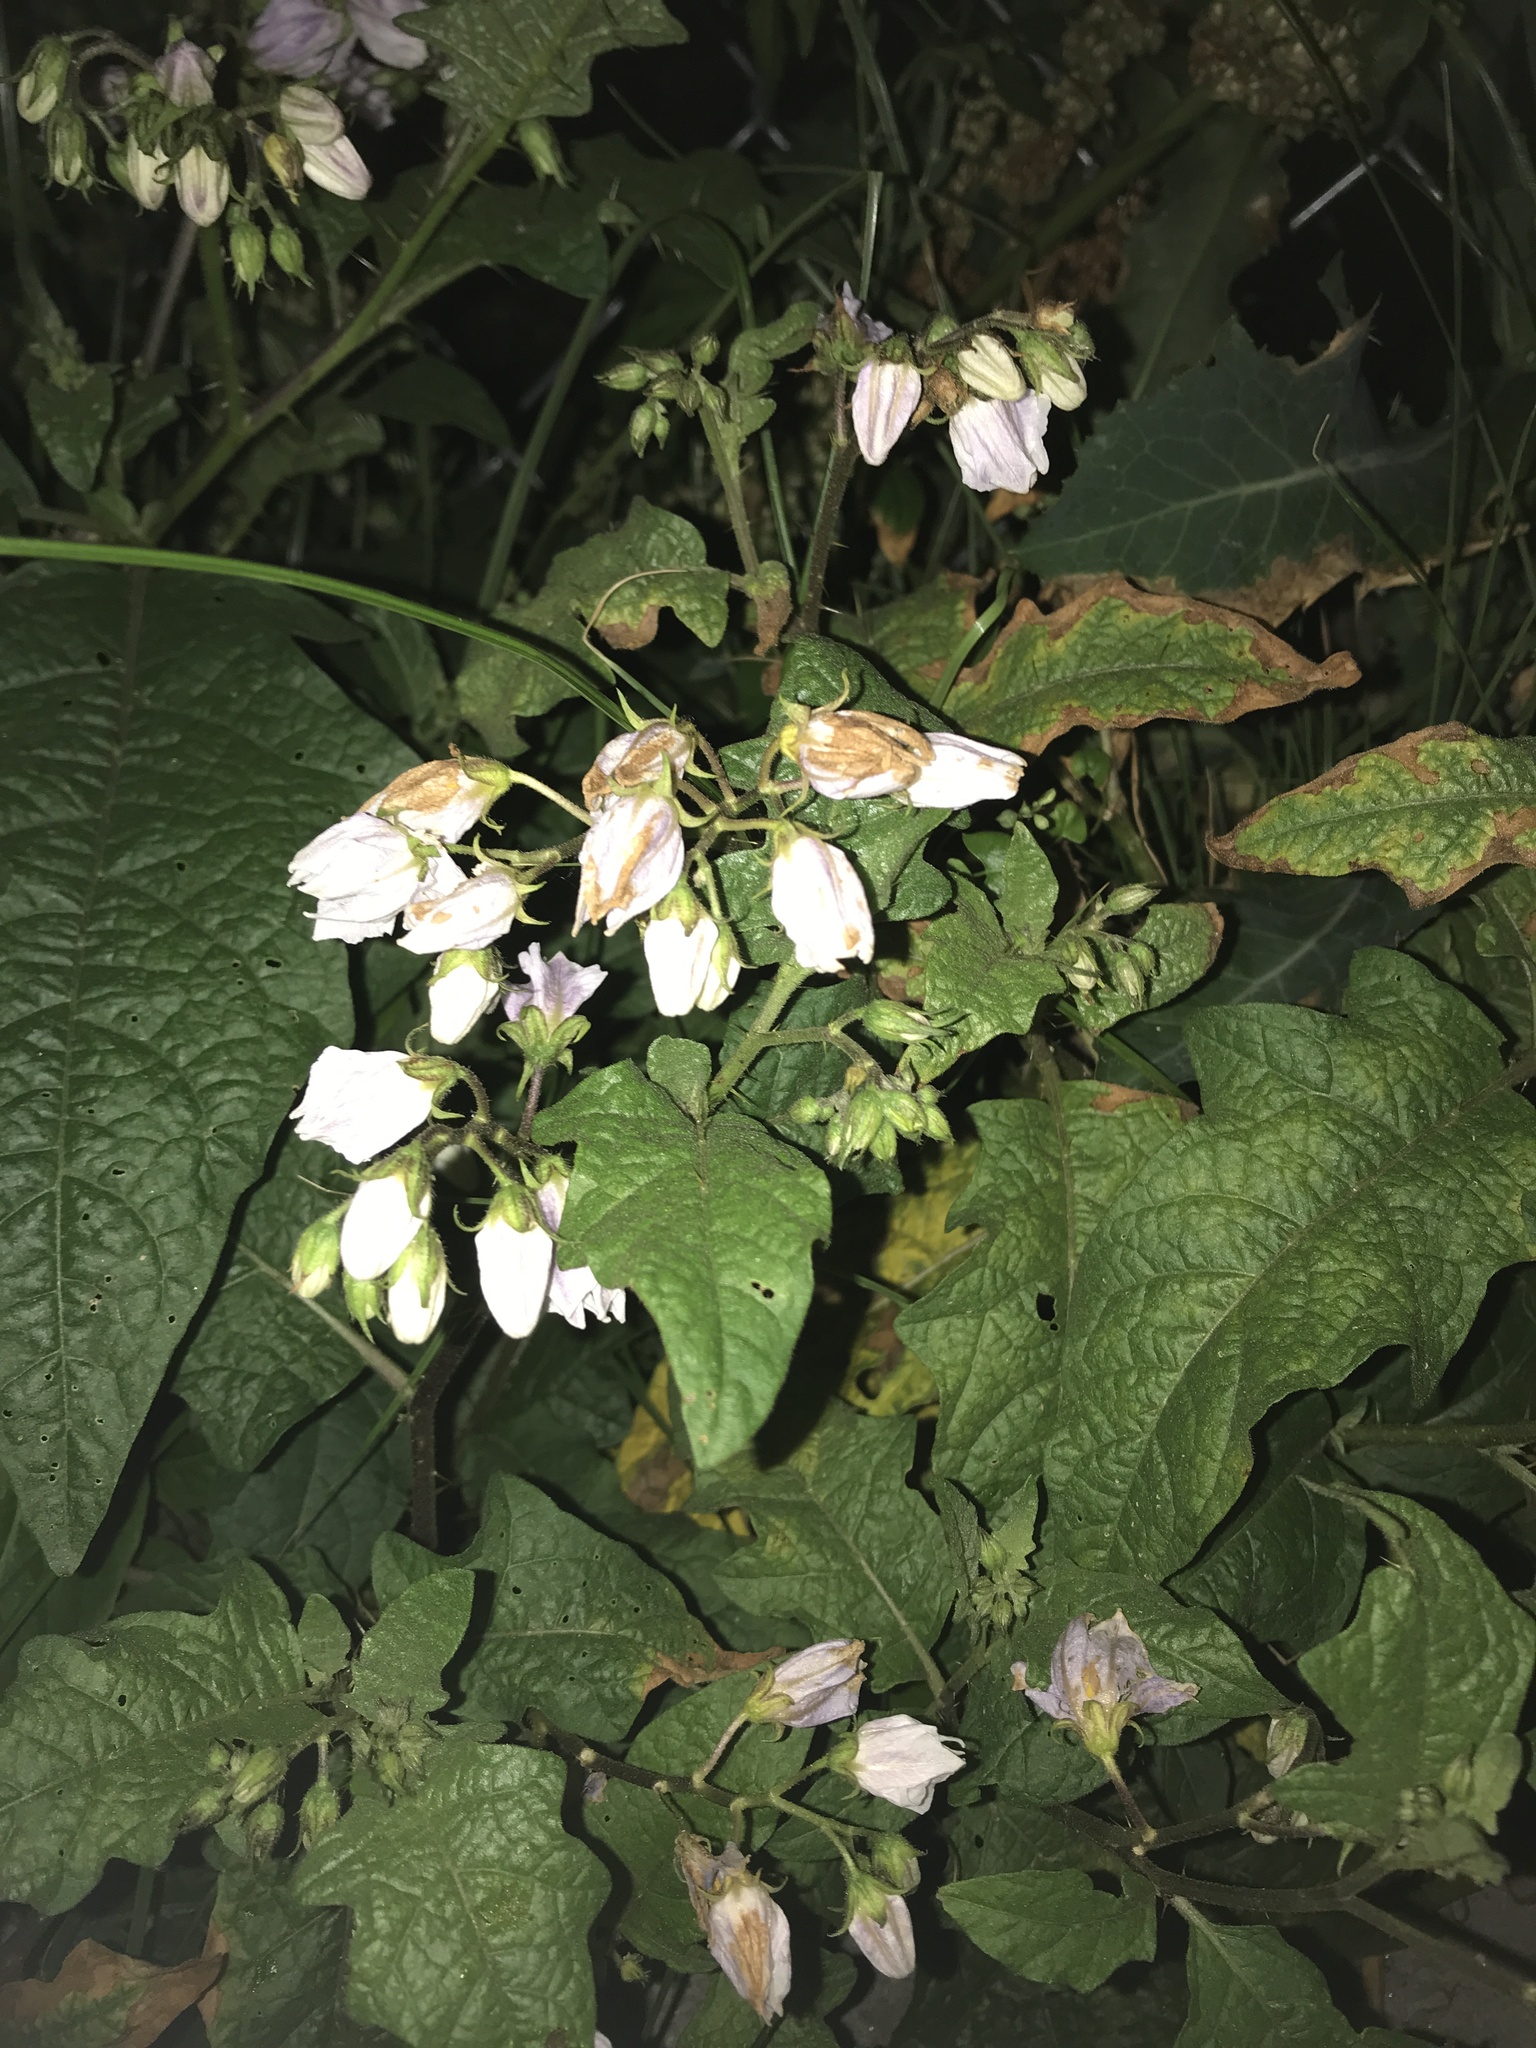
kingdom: Plantae
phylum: Tracheophyta
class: Magnoliopsida
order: Solanales
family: Solanaceae
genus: Solanum
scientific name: Solanum carolinense
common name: Horse-nettle
